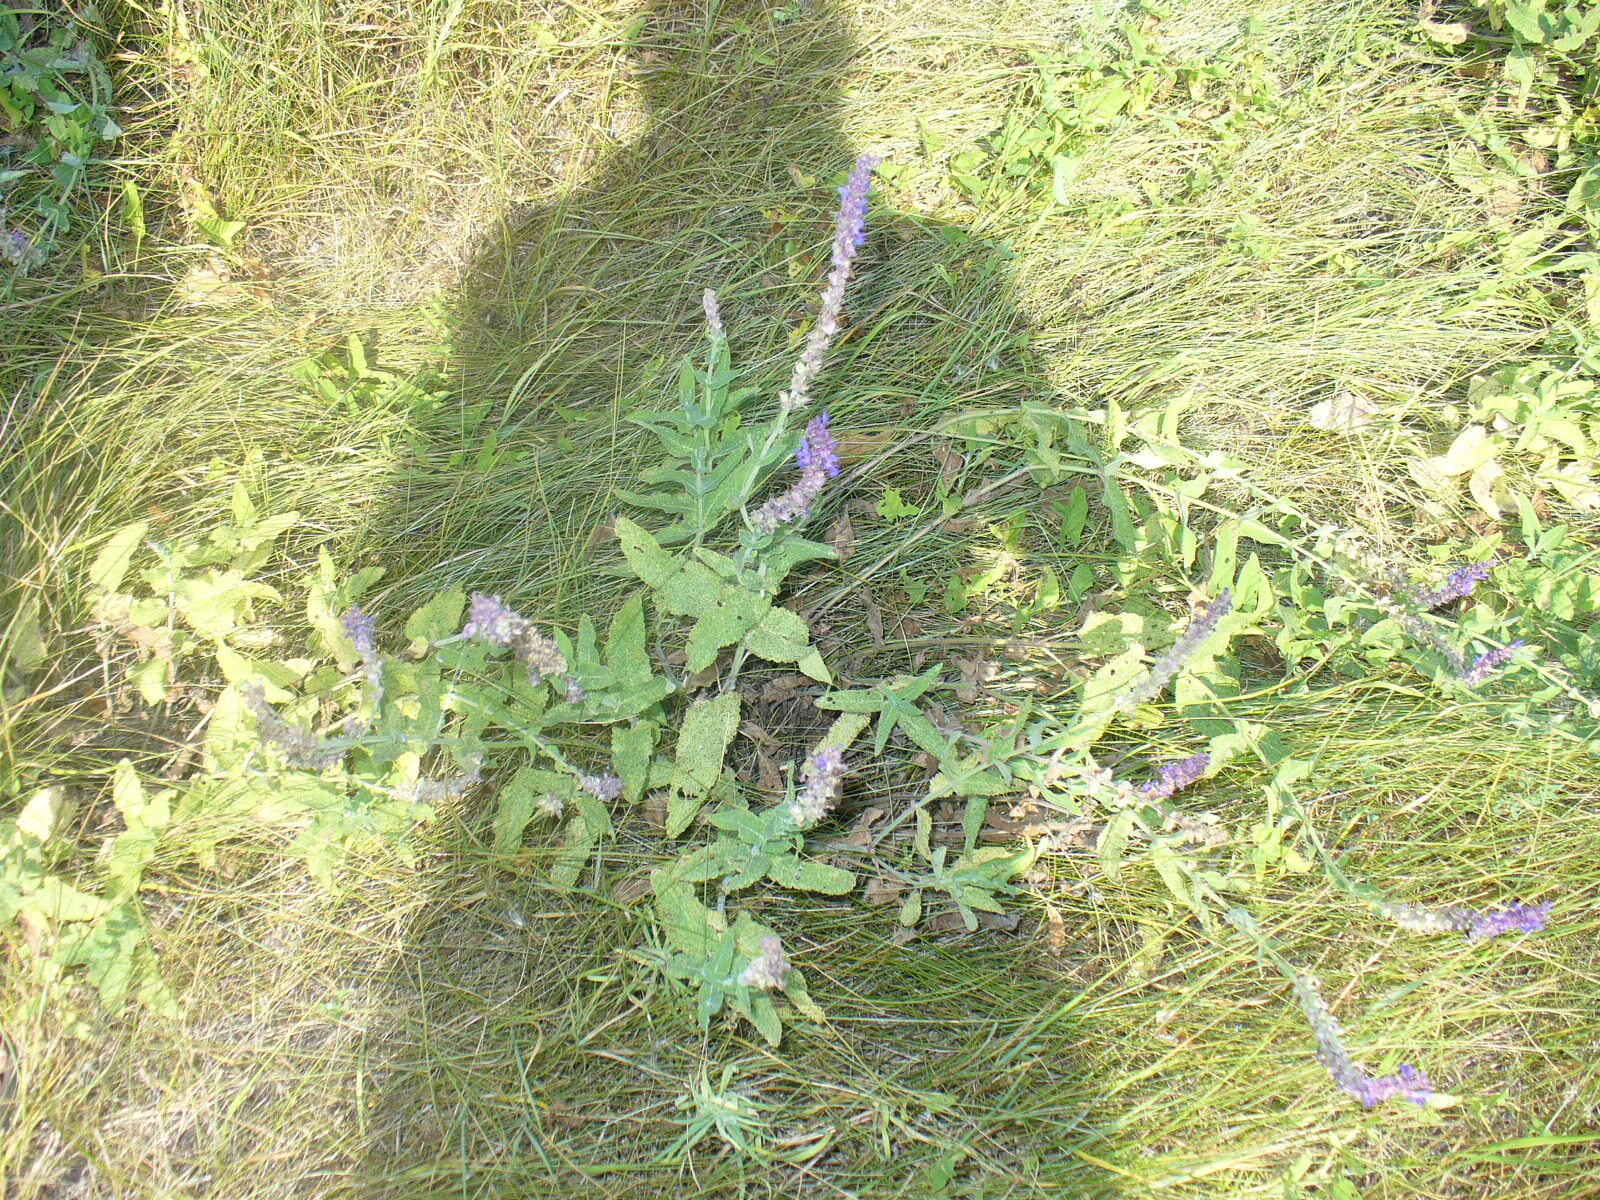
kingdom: Plantae
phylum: Tracheophyta
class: Magnoliopsida
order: Lamiales
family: Lamiaceae
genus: Salvia
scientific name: Salvia nemorosa
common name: Balkan clary
